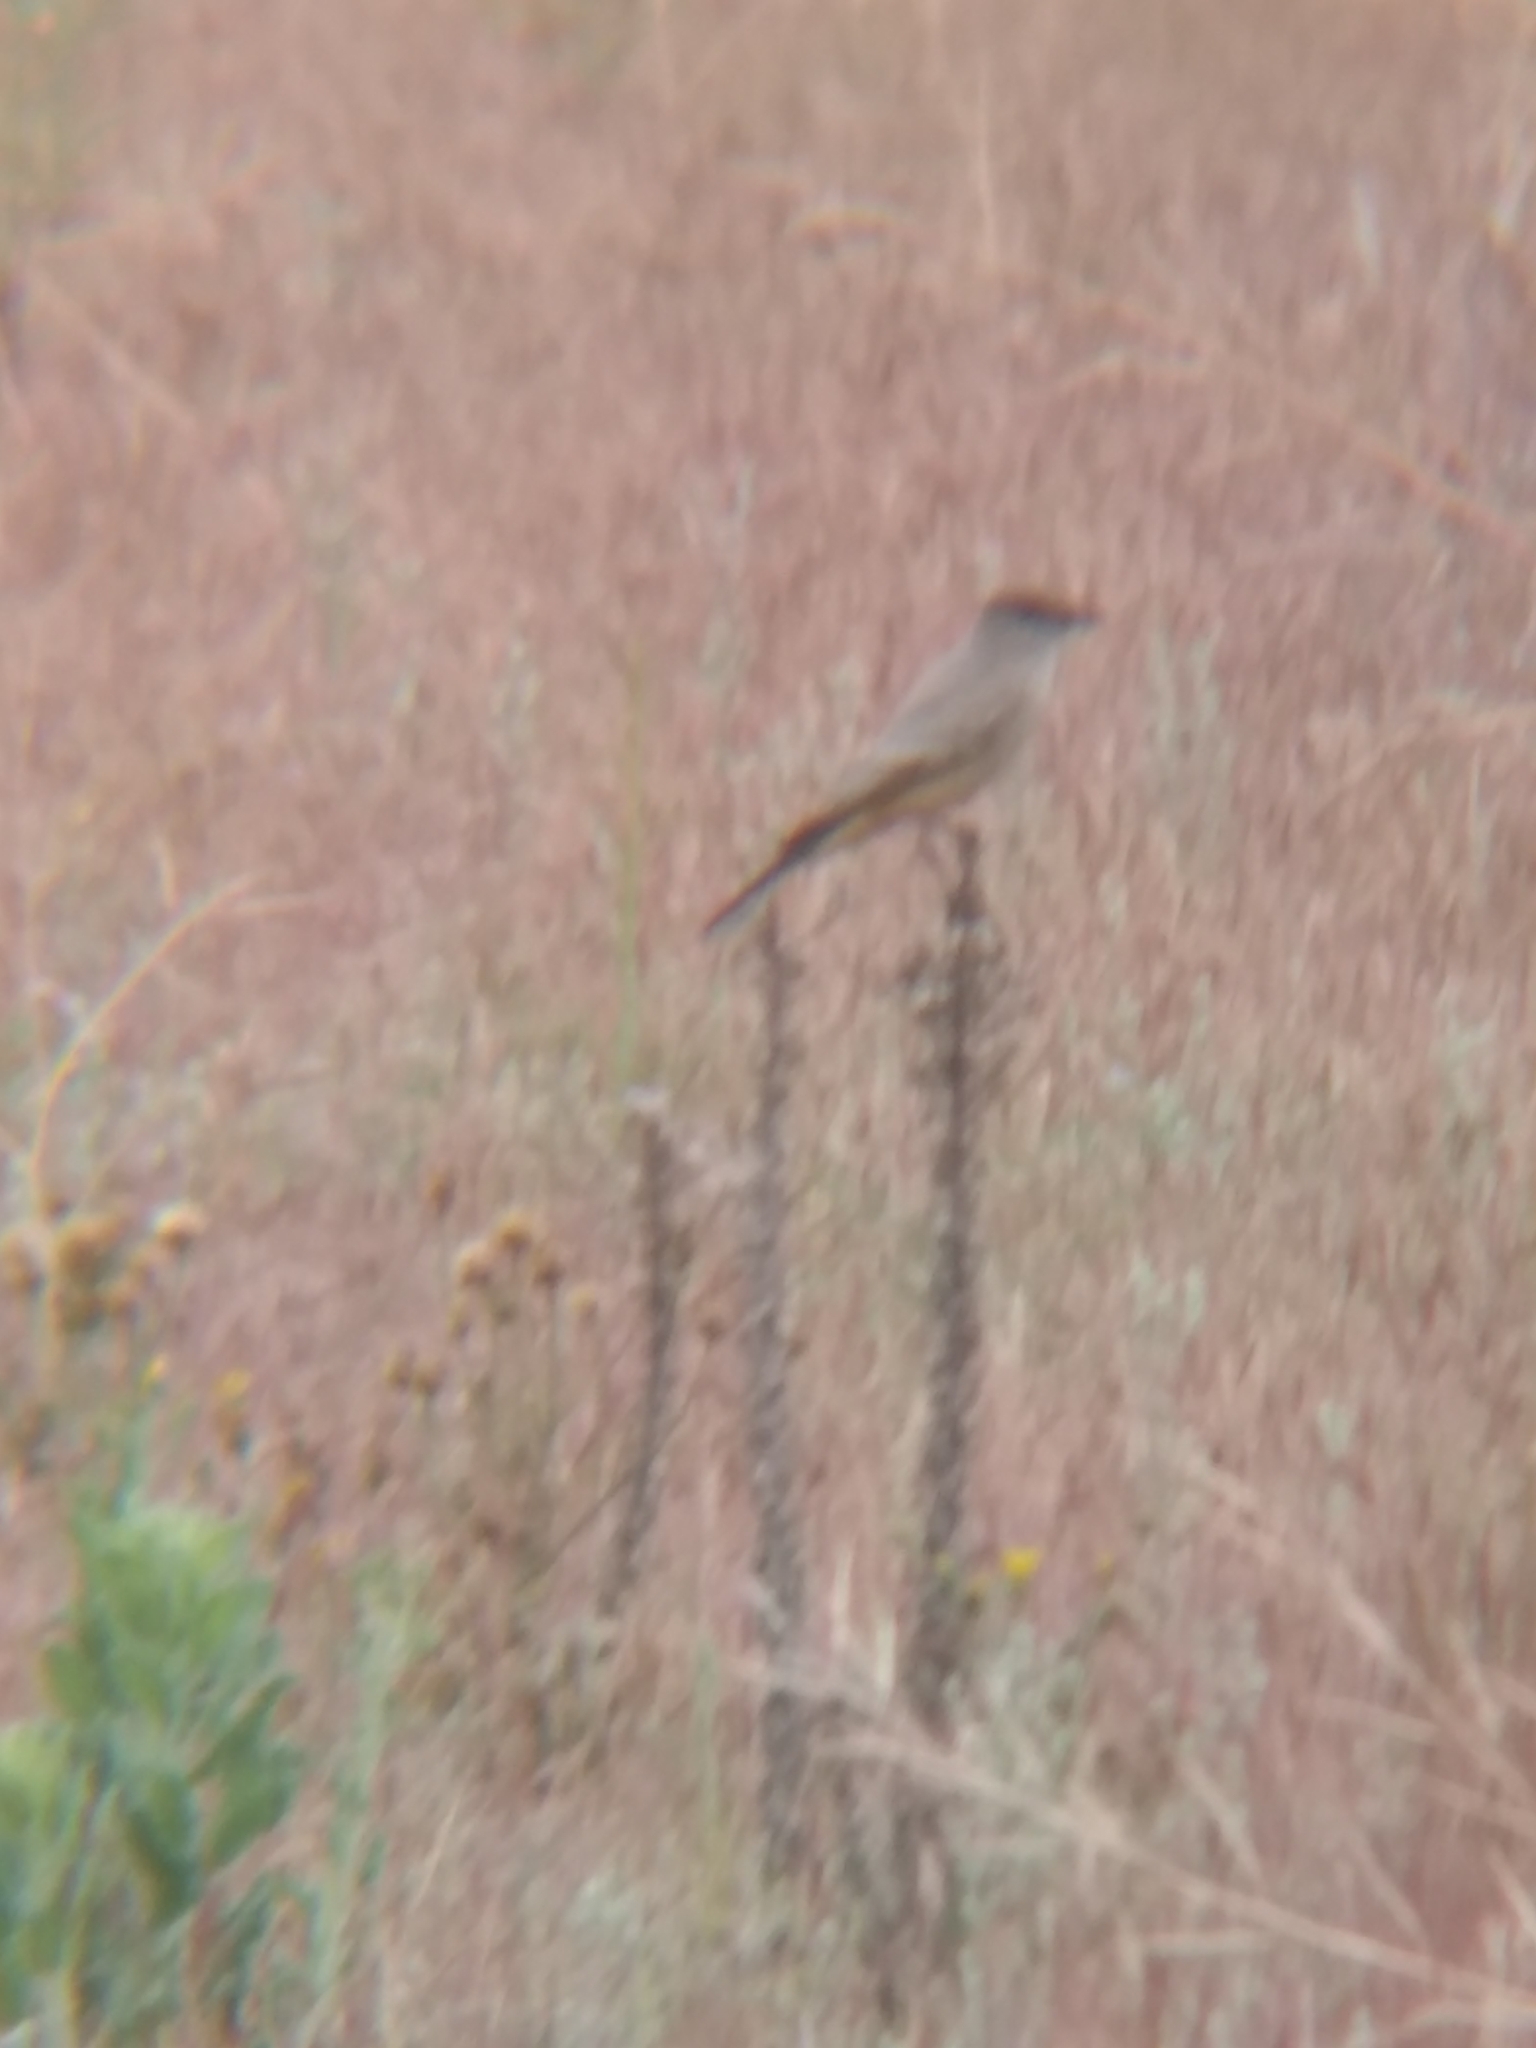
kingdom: Animalia
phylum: Chordata
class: Aves
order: Passeriformes
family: Tyrannidae
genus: Sayornis
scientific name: Sayornis saya
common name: Say's phoebe
